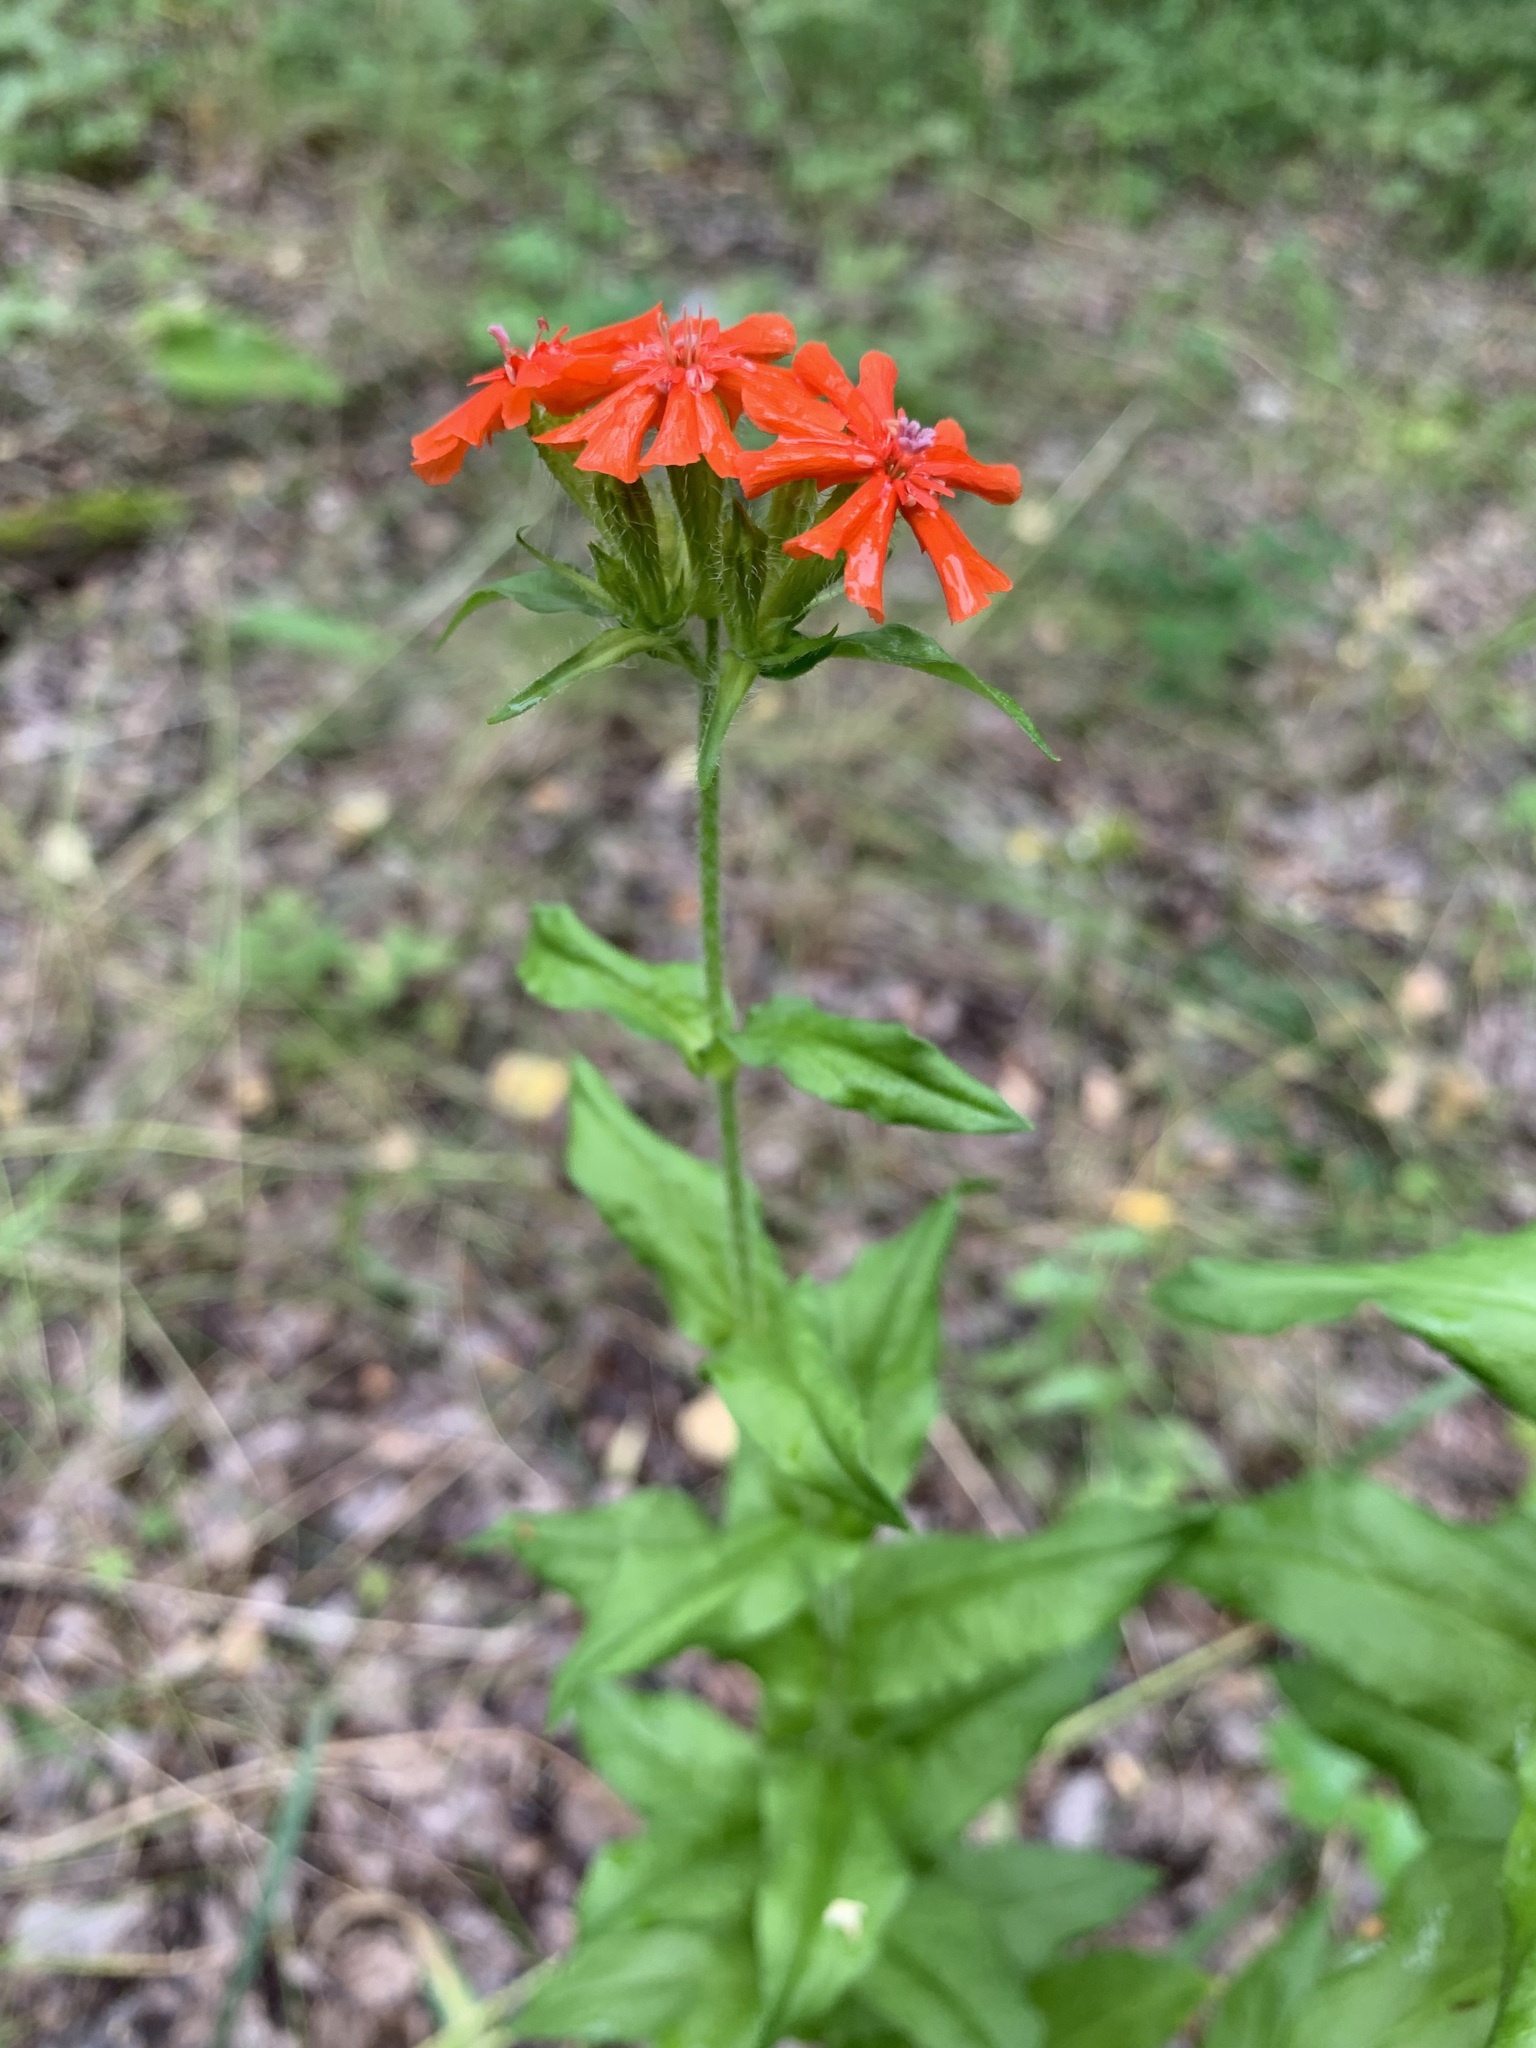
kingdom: Plantae
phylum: Tracheophyta
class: Magnoliopsida
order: Caryophyllales
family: Caryophyllaceae
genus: Silene
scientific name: Silene chalcedonica
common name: Maltese-cross
